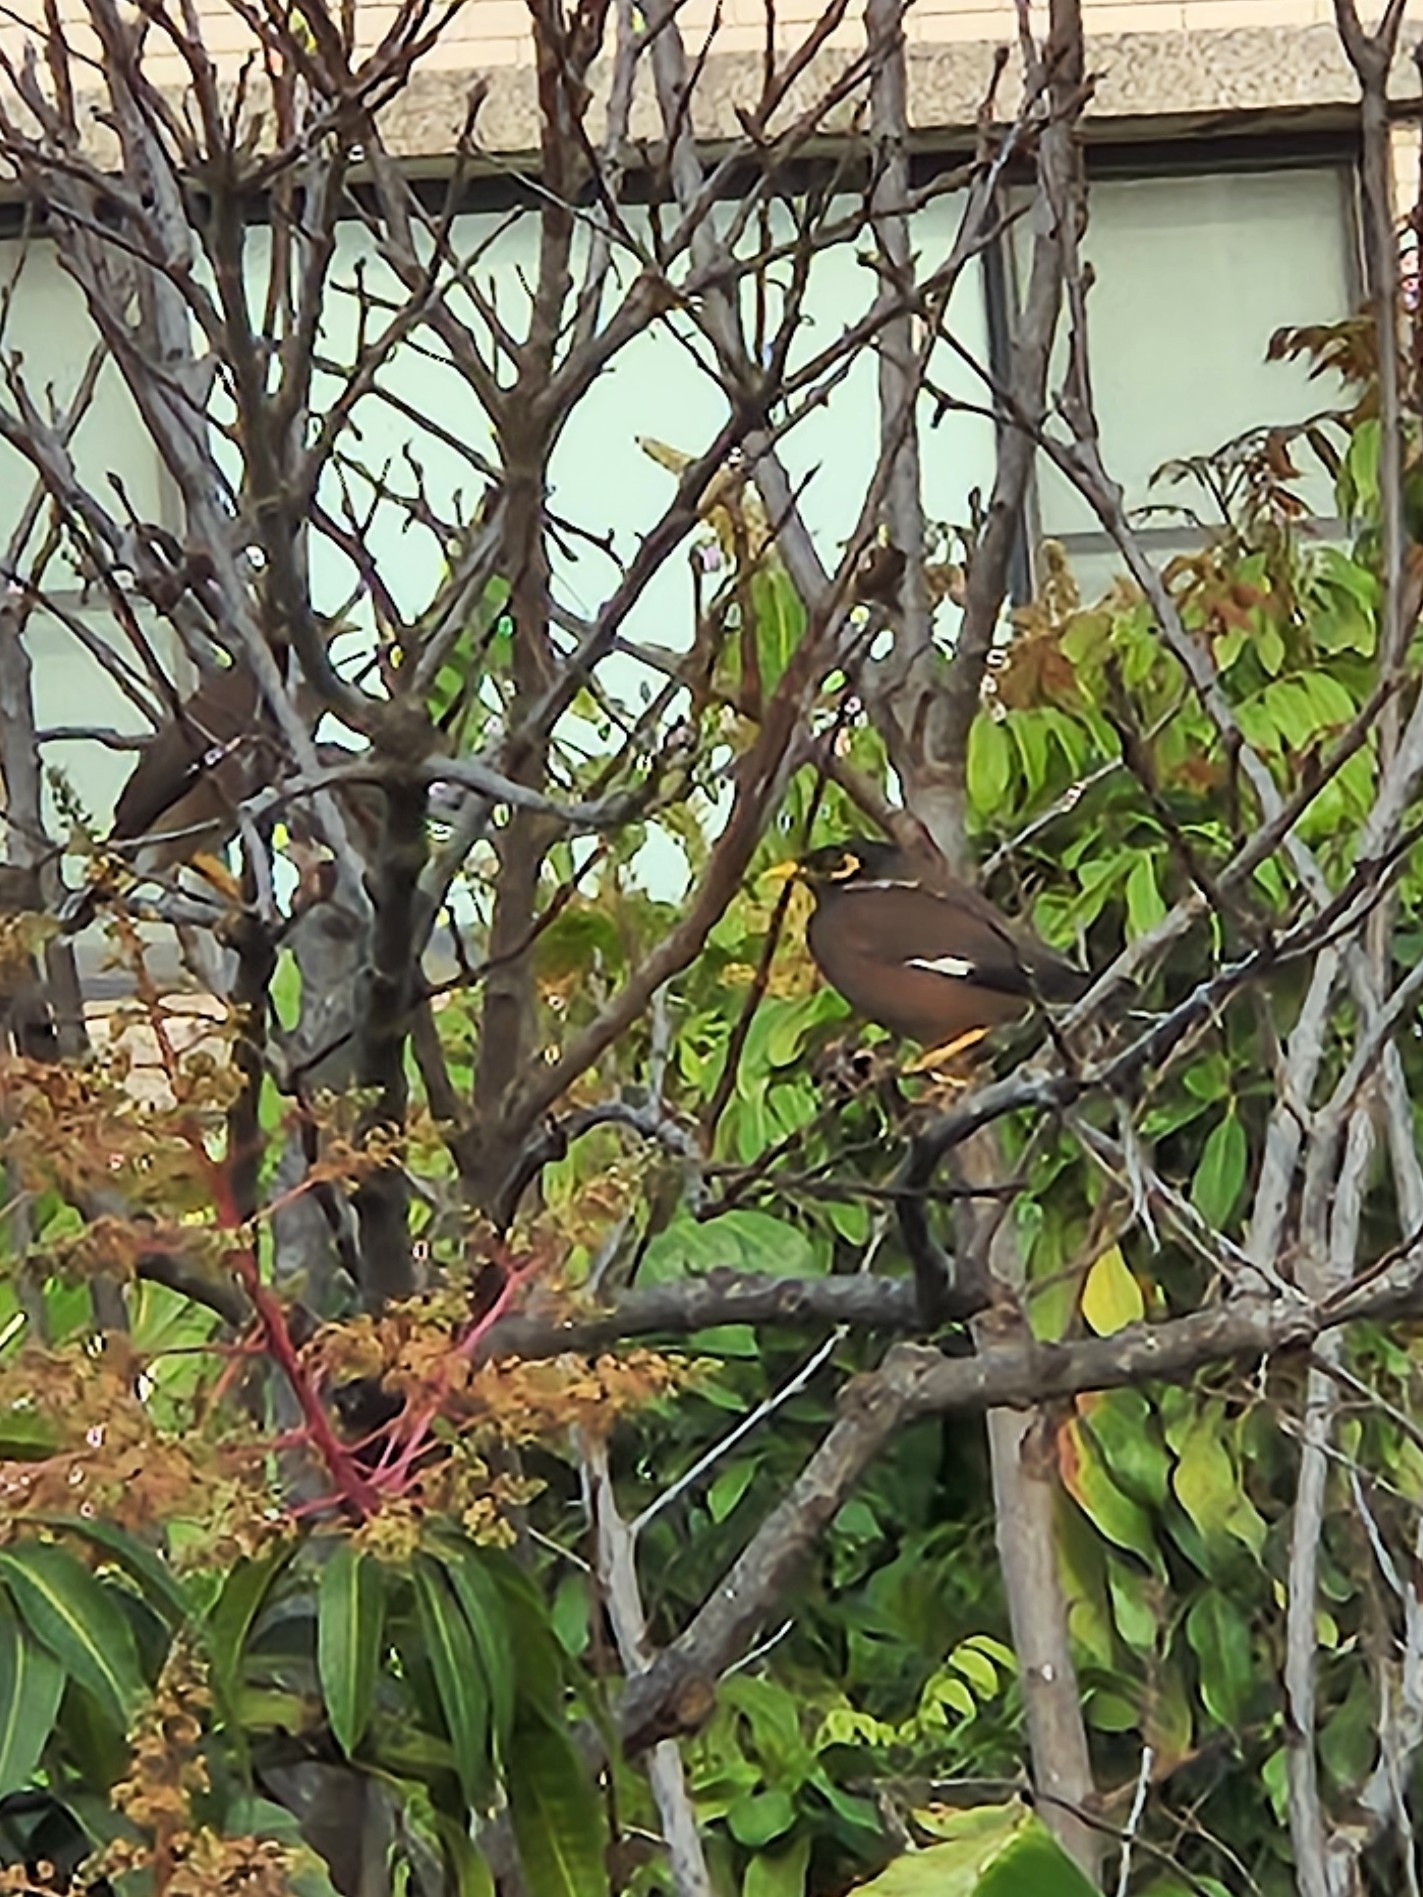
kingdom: Animalia
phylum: Chordata
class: Aves
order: Passeriformes
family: Sturnidae
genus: Acridotheres
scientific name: Acridotheres tristis
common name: Common myna
